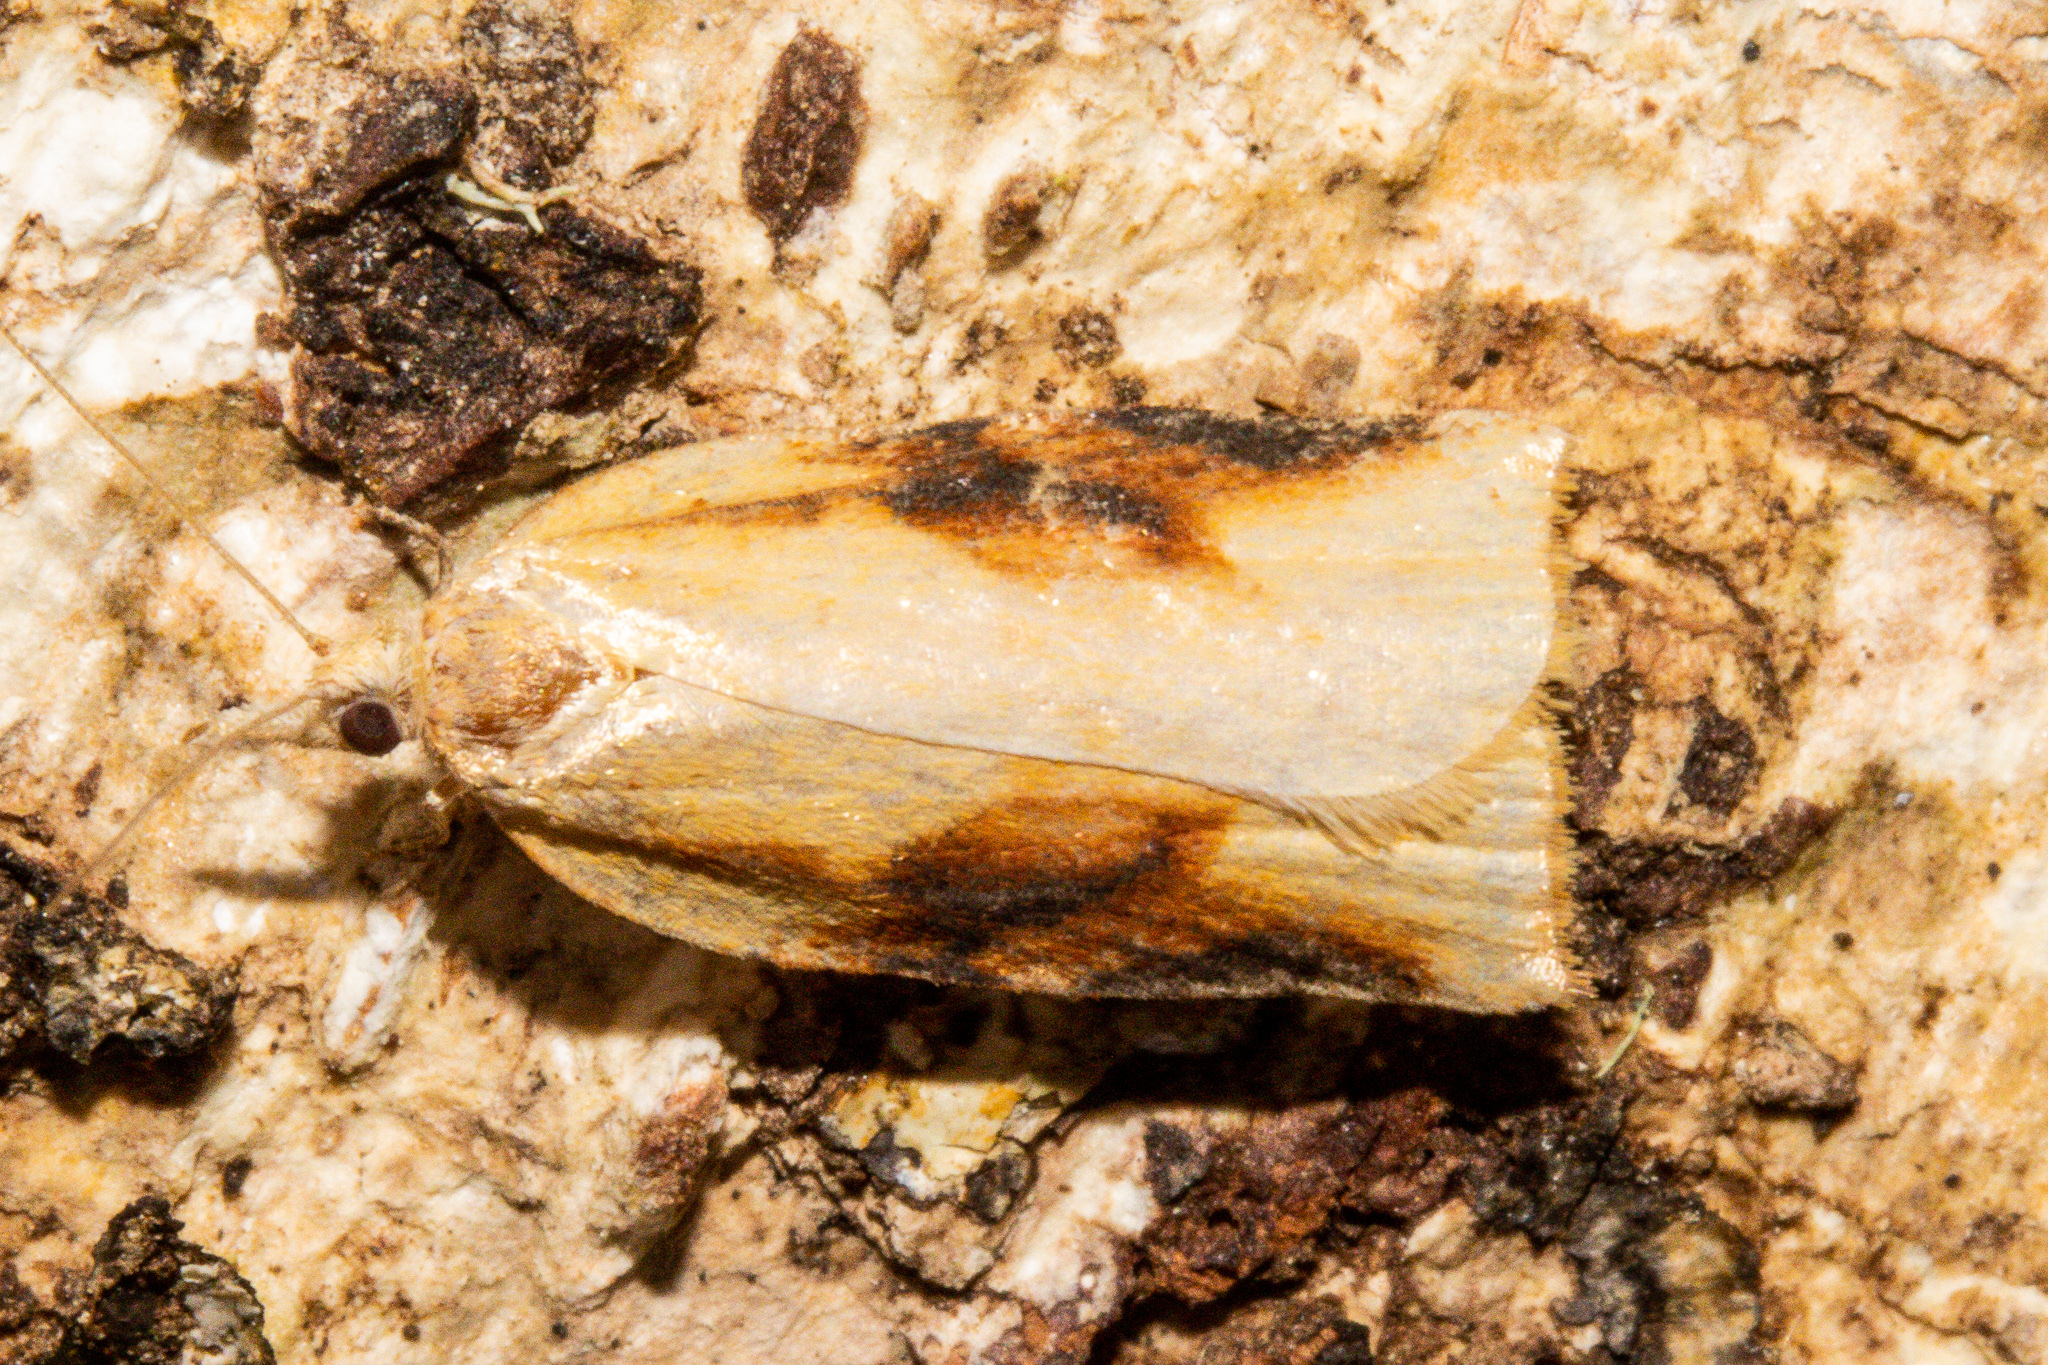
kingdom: Animalia
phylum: Arthropoda
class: Insecta
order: Lepidoptera
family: Tortricidae
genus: Apoctena
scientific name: Apoctena conditana
